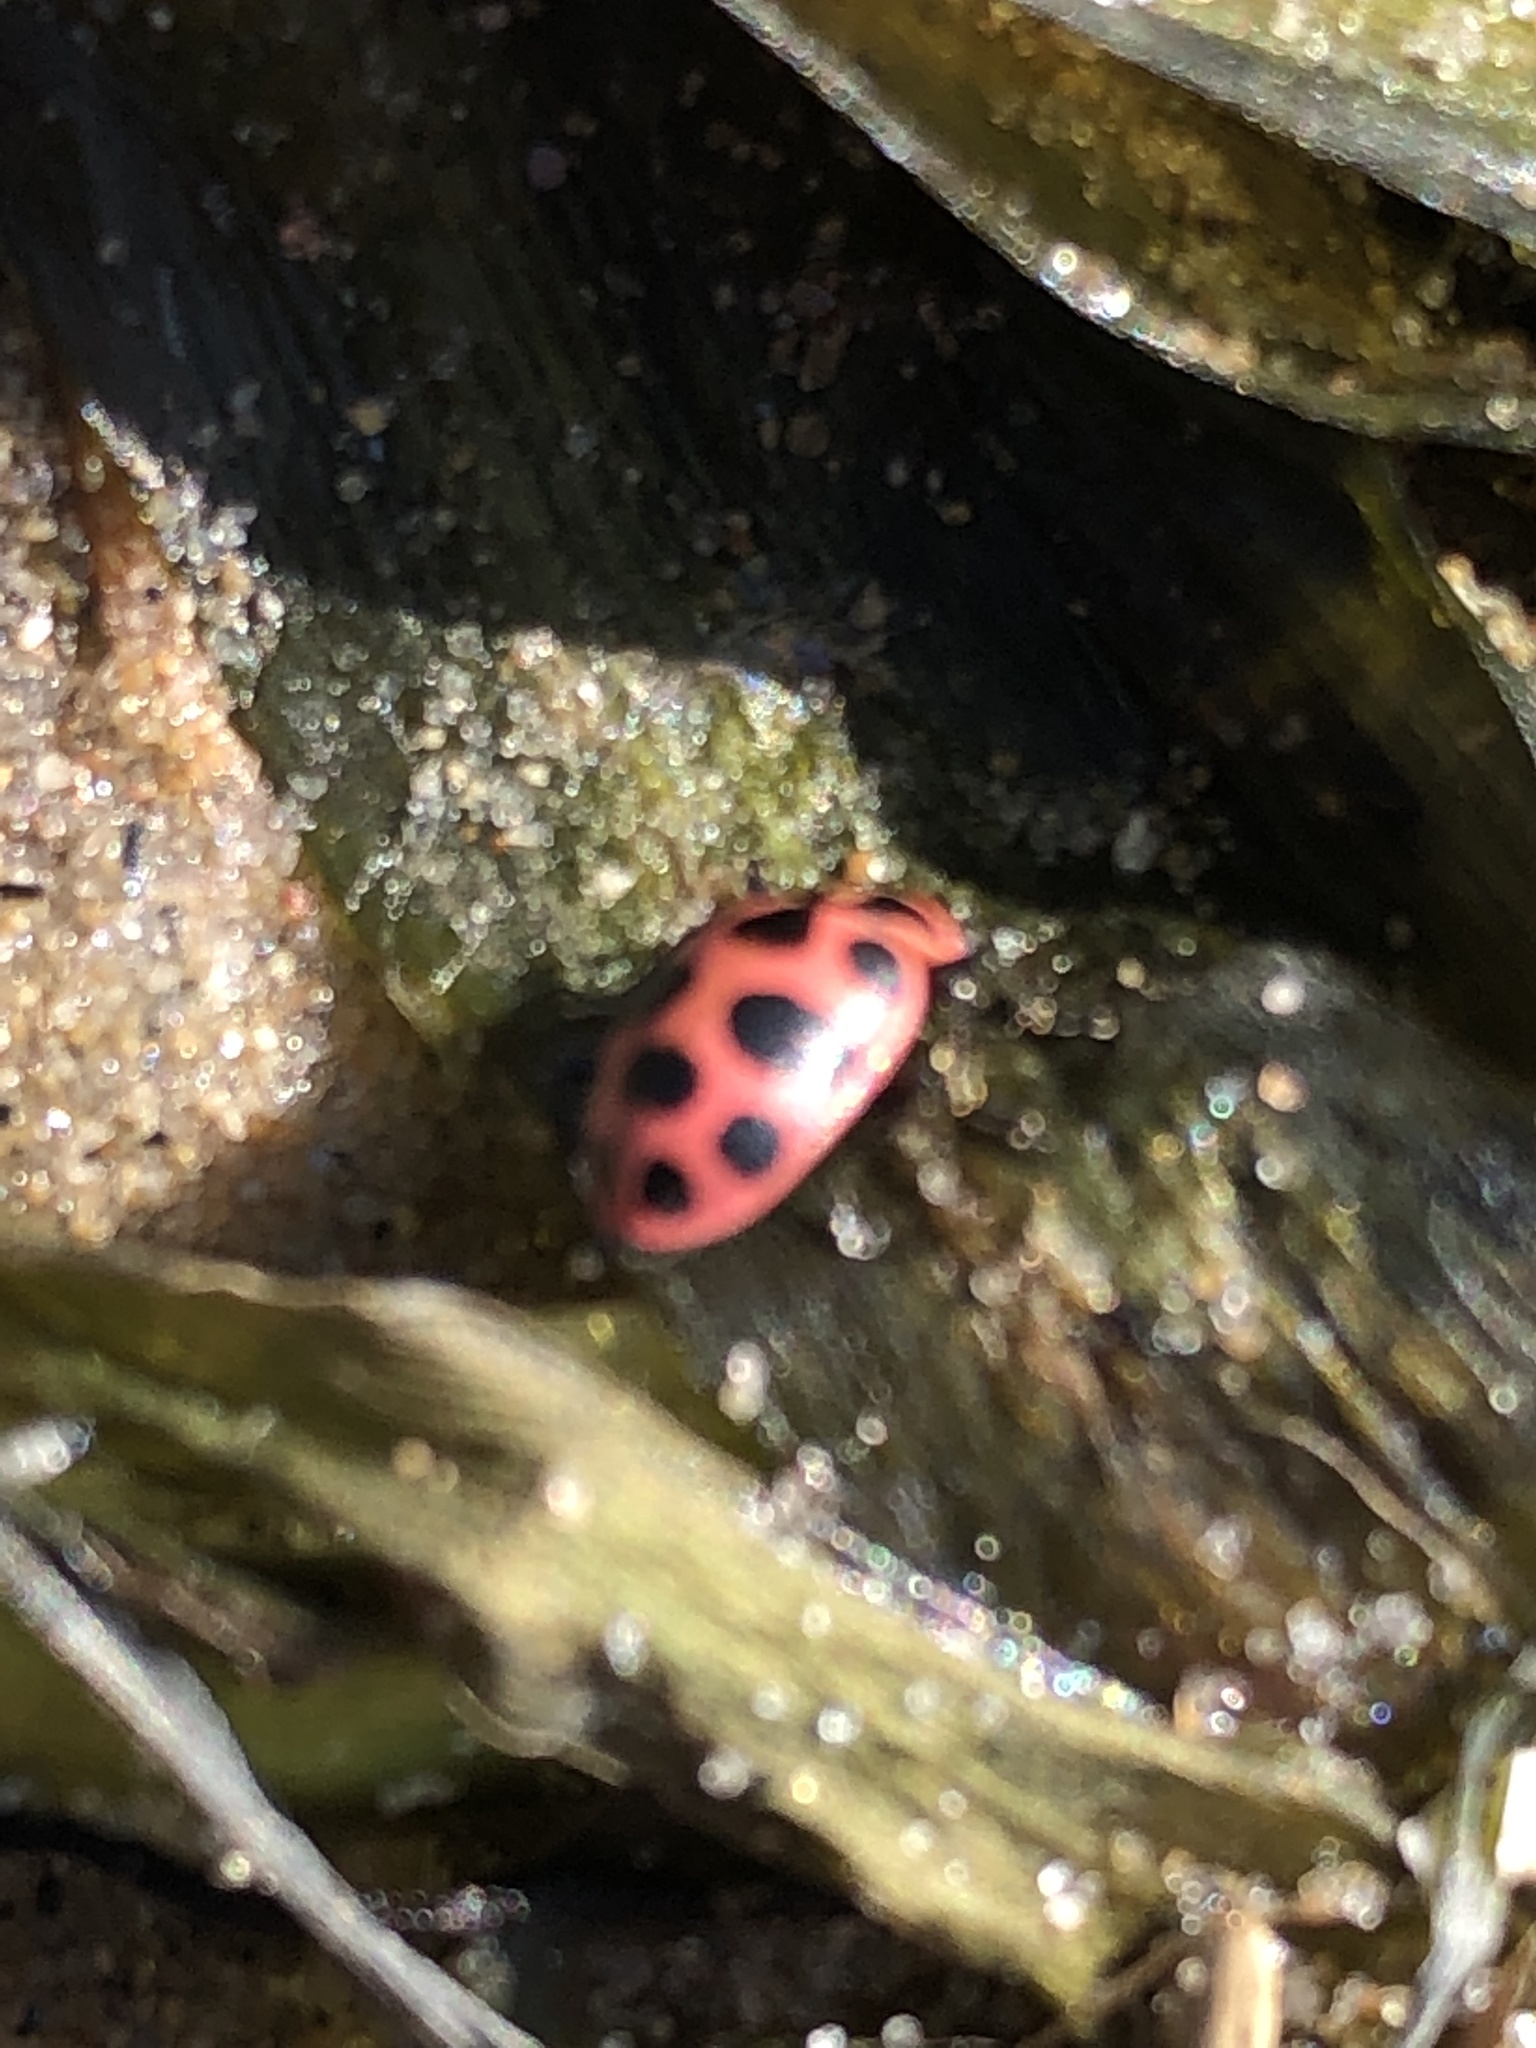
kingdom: Animalia
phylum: Arthropoda
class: Insecta
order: Coleoptera
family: Coccinellidae
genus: Coleomegilla
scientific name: Coleomegilla maculata
